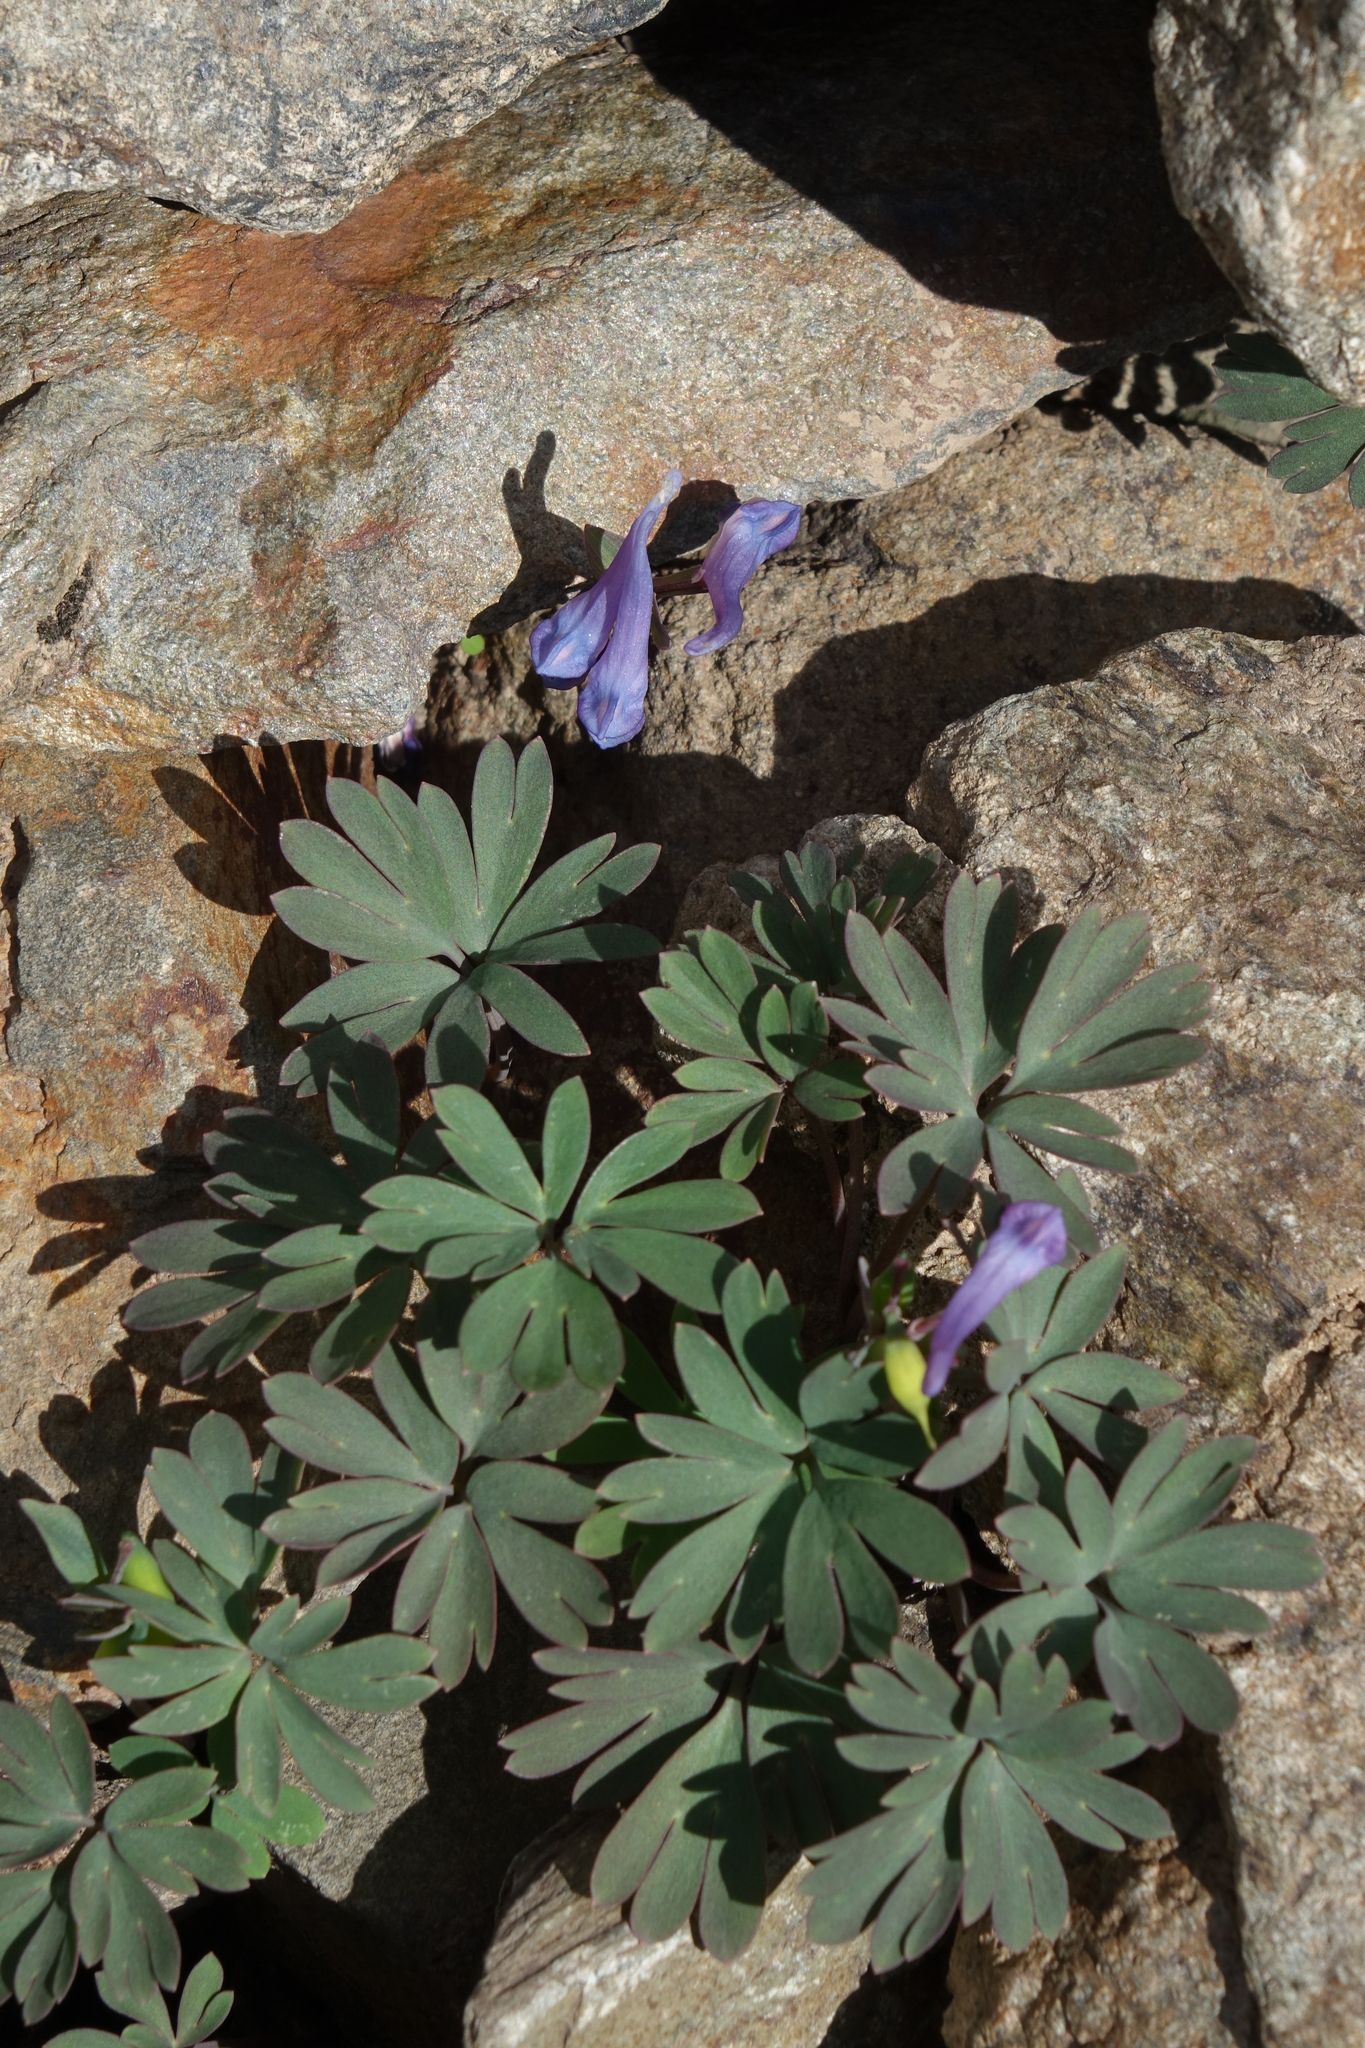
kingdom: Plantae
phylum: Tracheophyta
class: Magnoliopsida
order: Ranunculales
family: Papaveraceae
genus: Corydalis
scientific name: Corydalis alpestris
